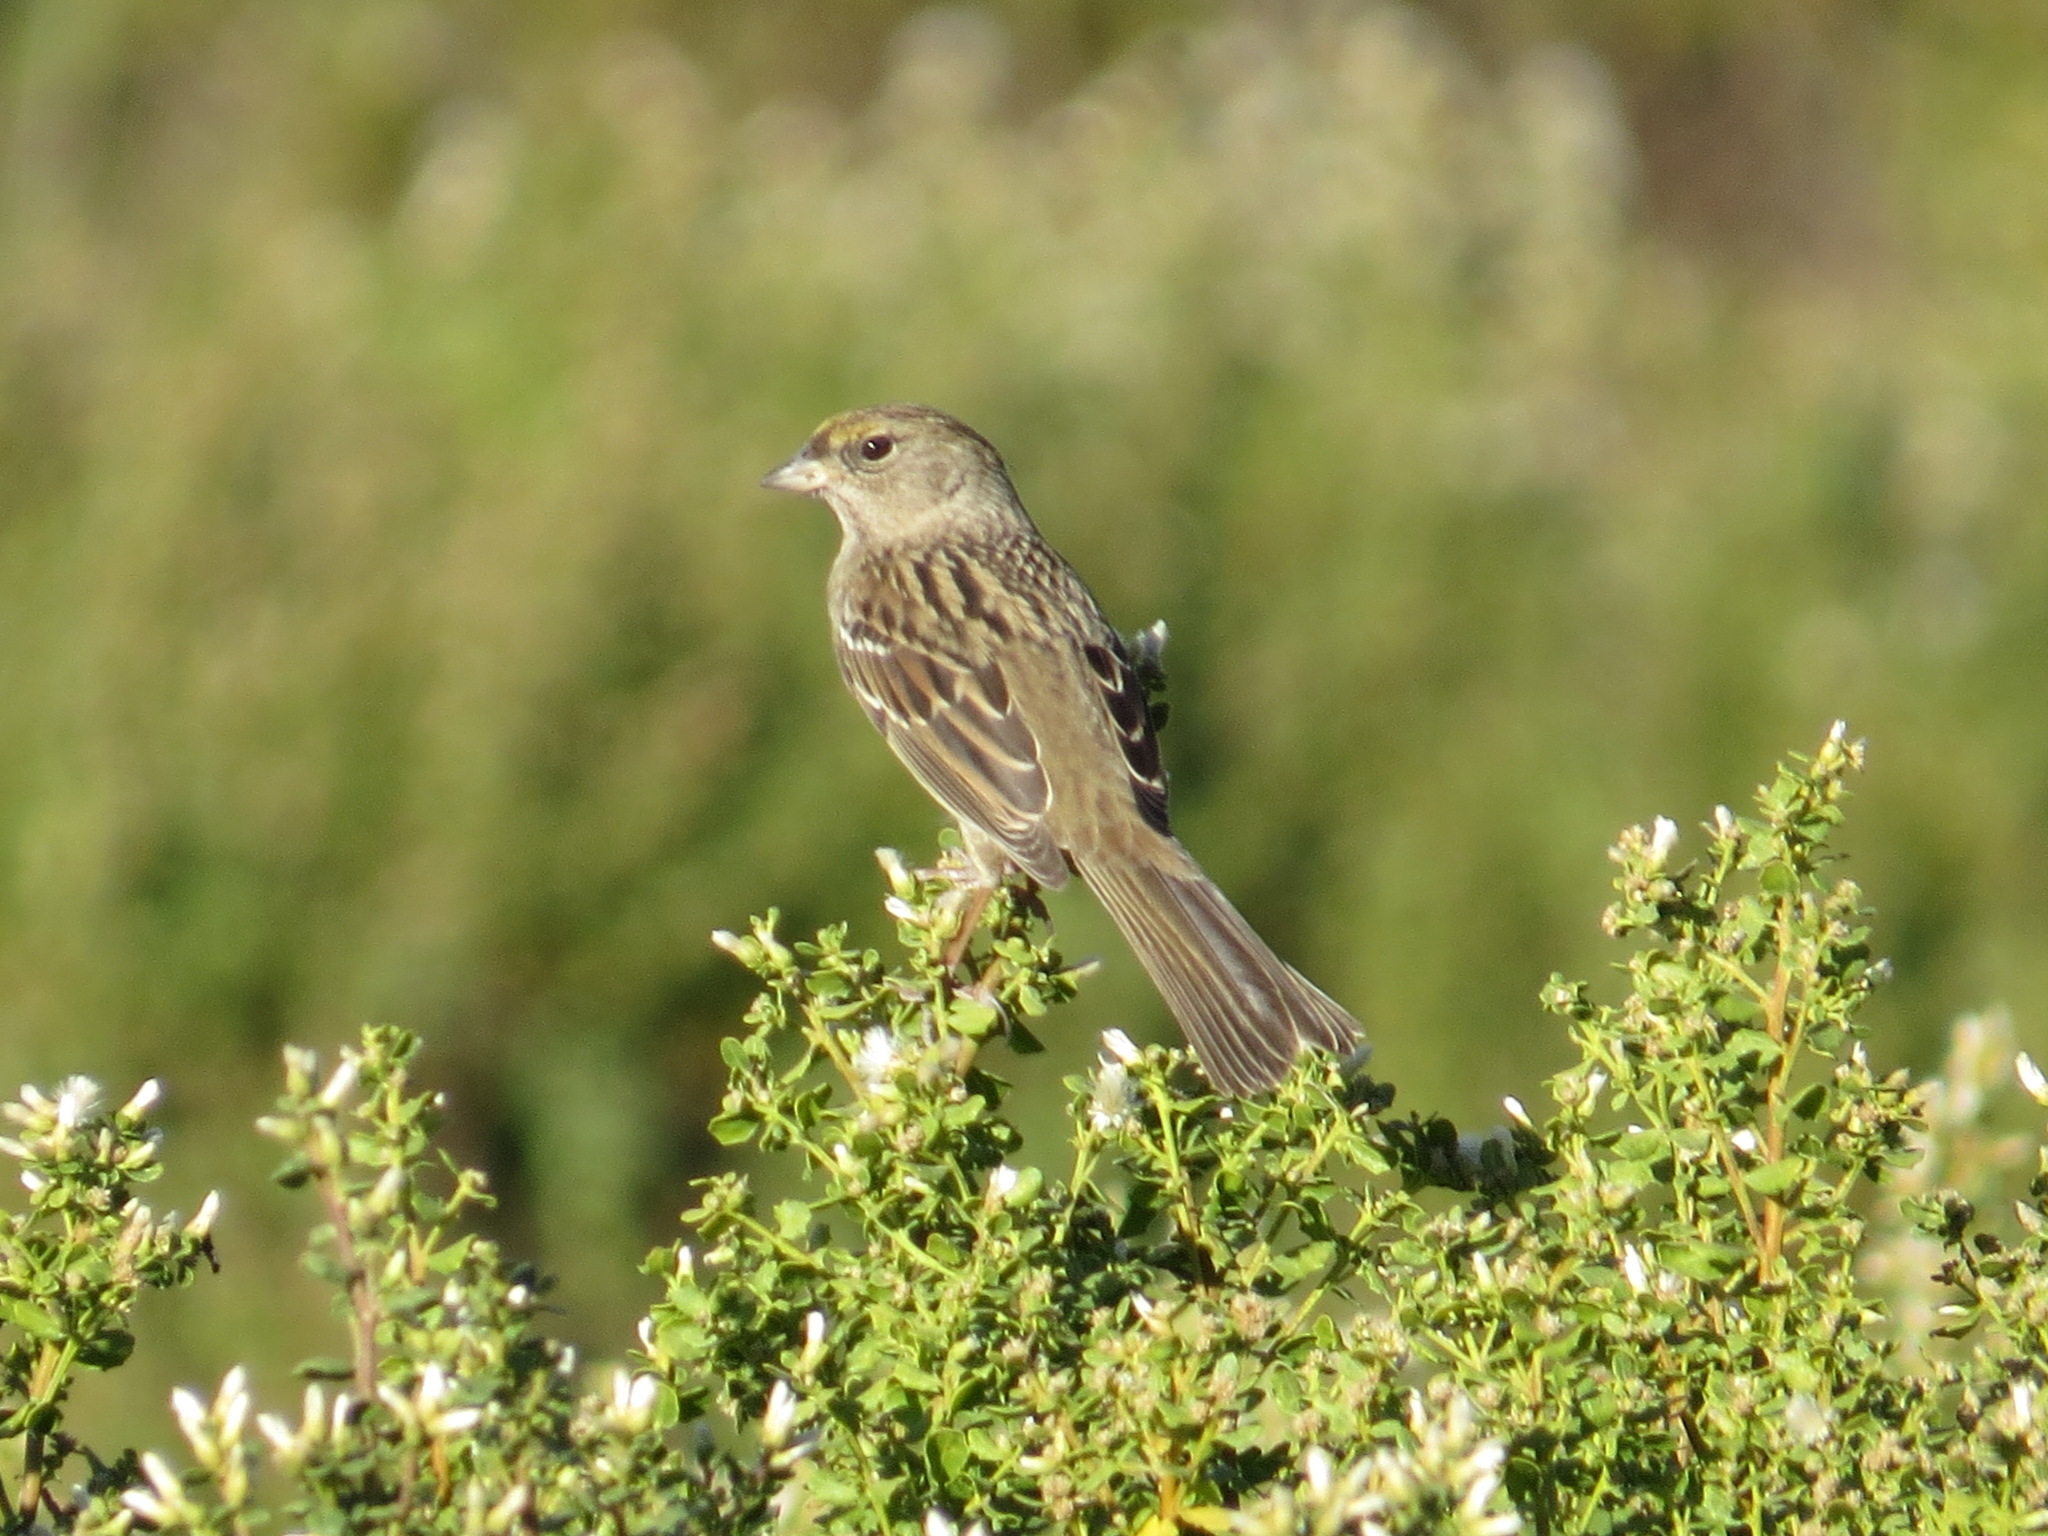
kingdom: Animalia
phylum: Chordata
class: Aves
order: Passeriformes
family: Passerellidae
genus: Zonotrichia
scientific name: Zonotrichia atricapilla
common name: Golden-crowned sparrow
